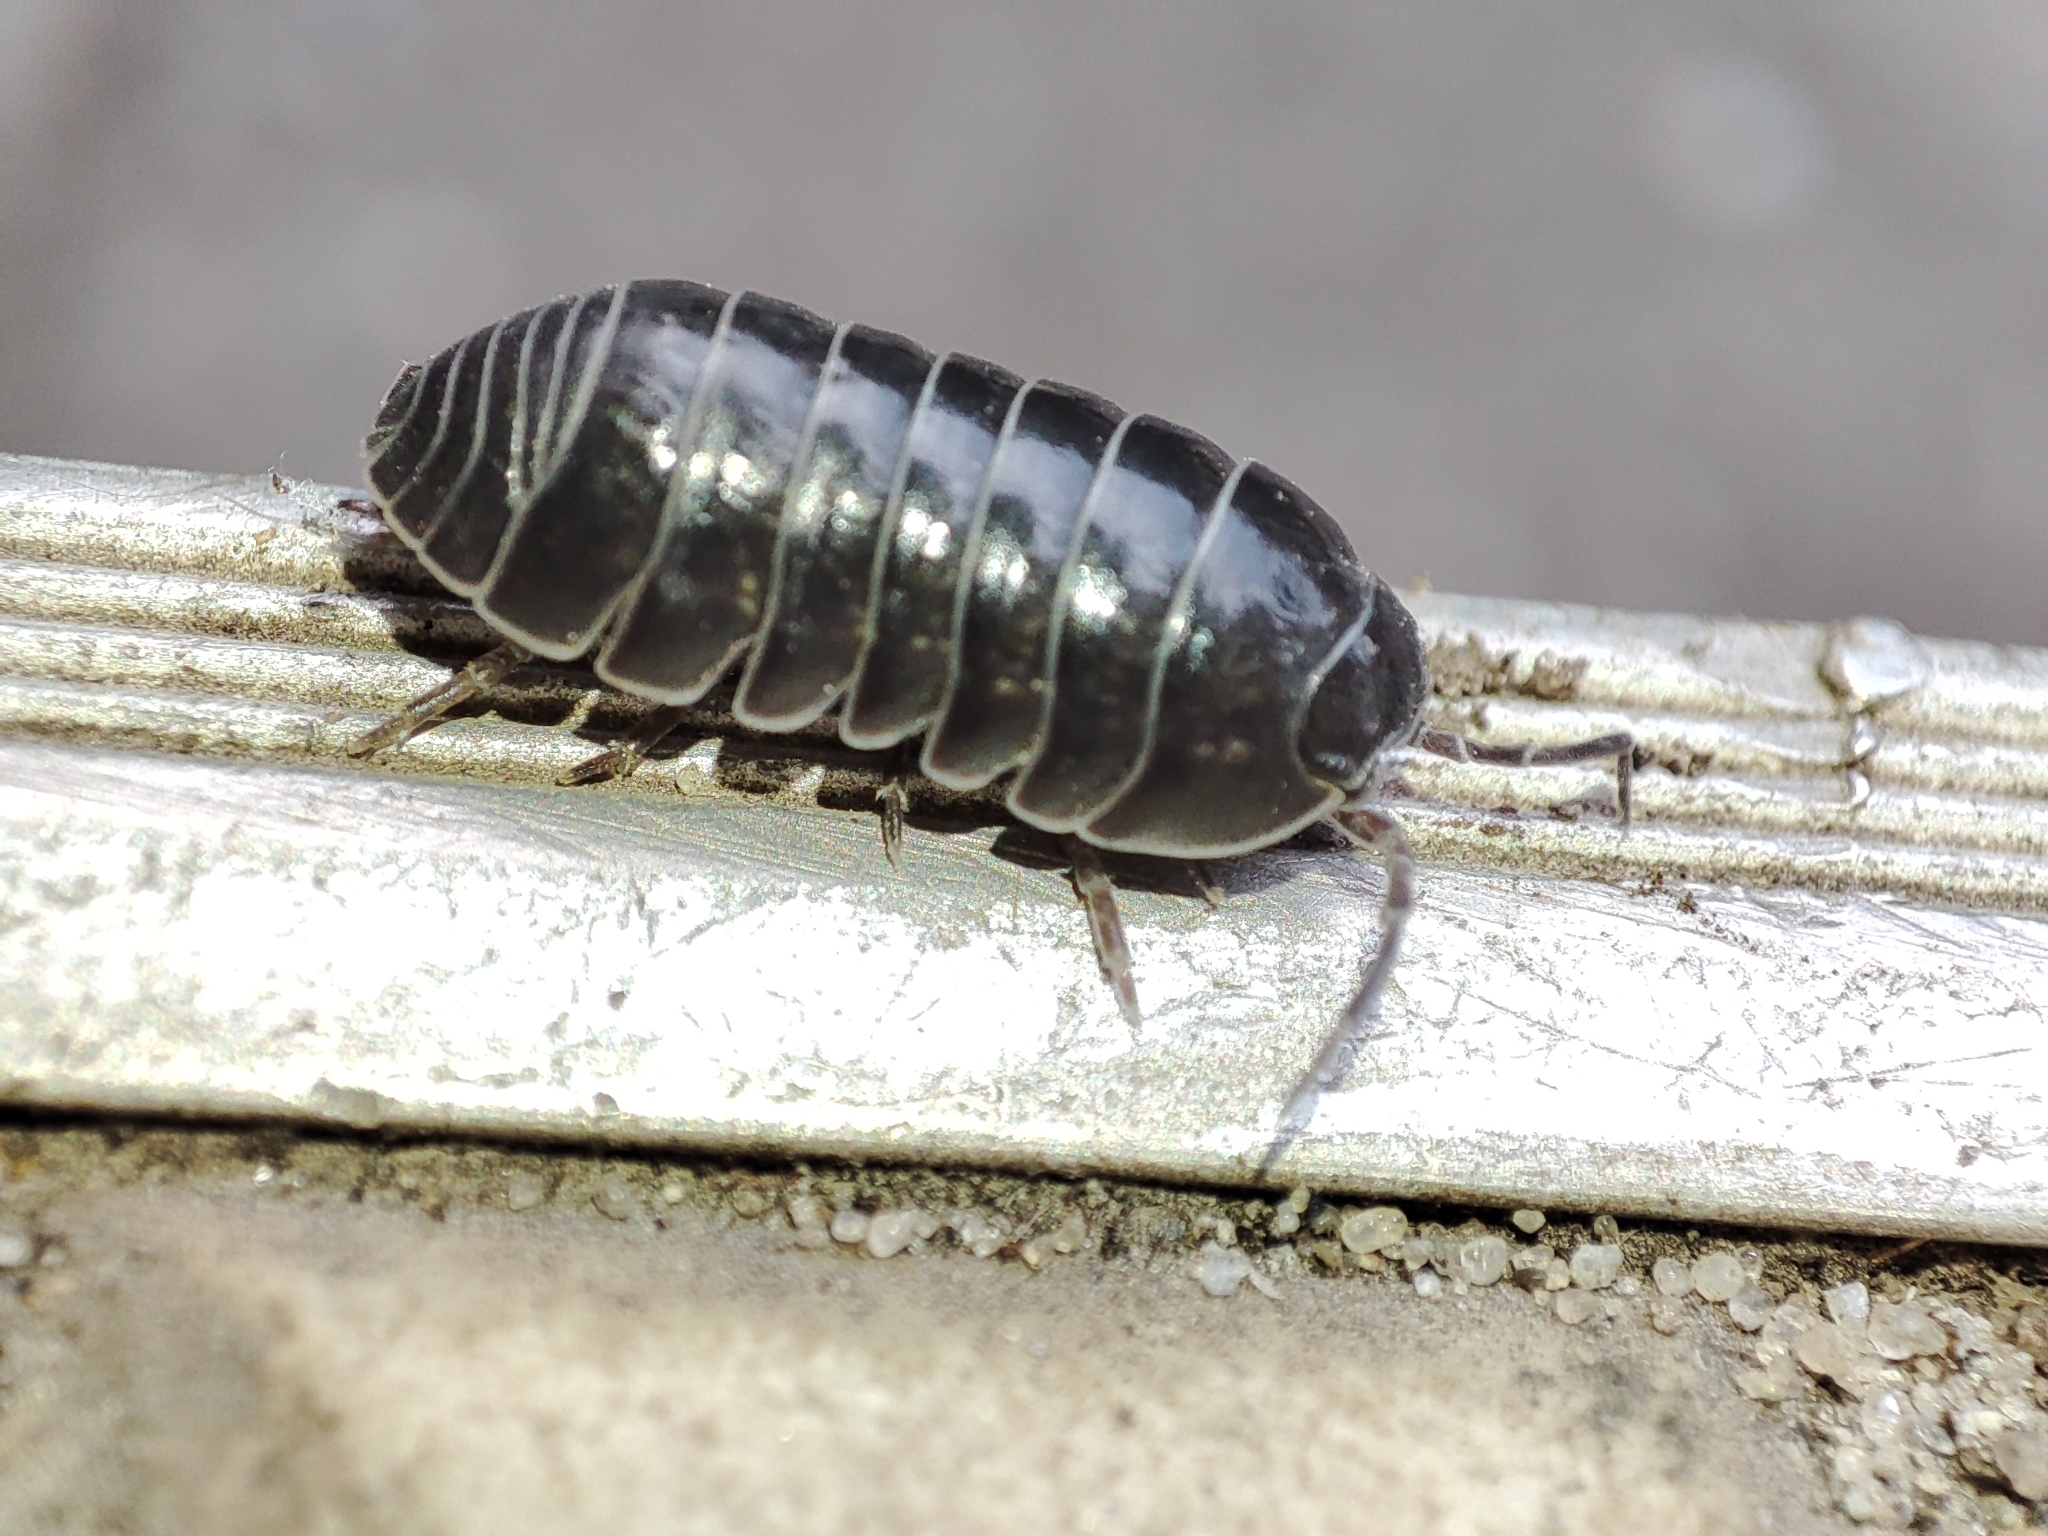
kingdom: Animalia
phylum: Arthropoda
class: Malacostraca
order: Isopoda
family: Armadillidiidae
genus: Armadillidium
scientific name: Armadillidium vulgare
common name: Common pill woodlouse
